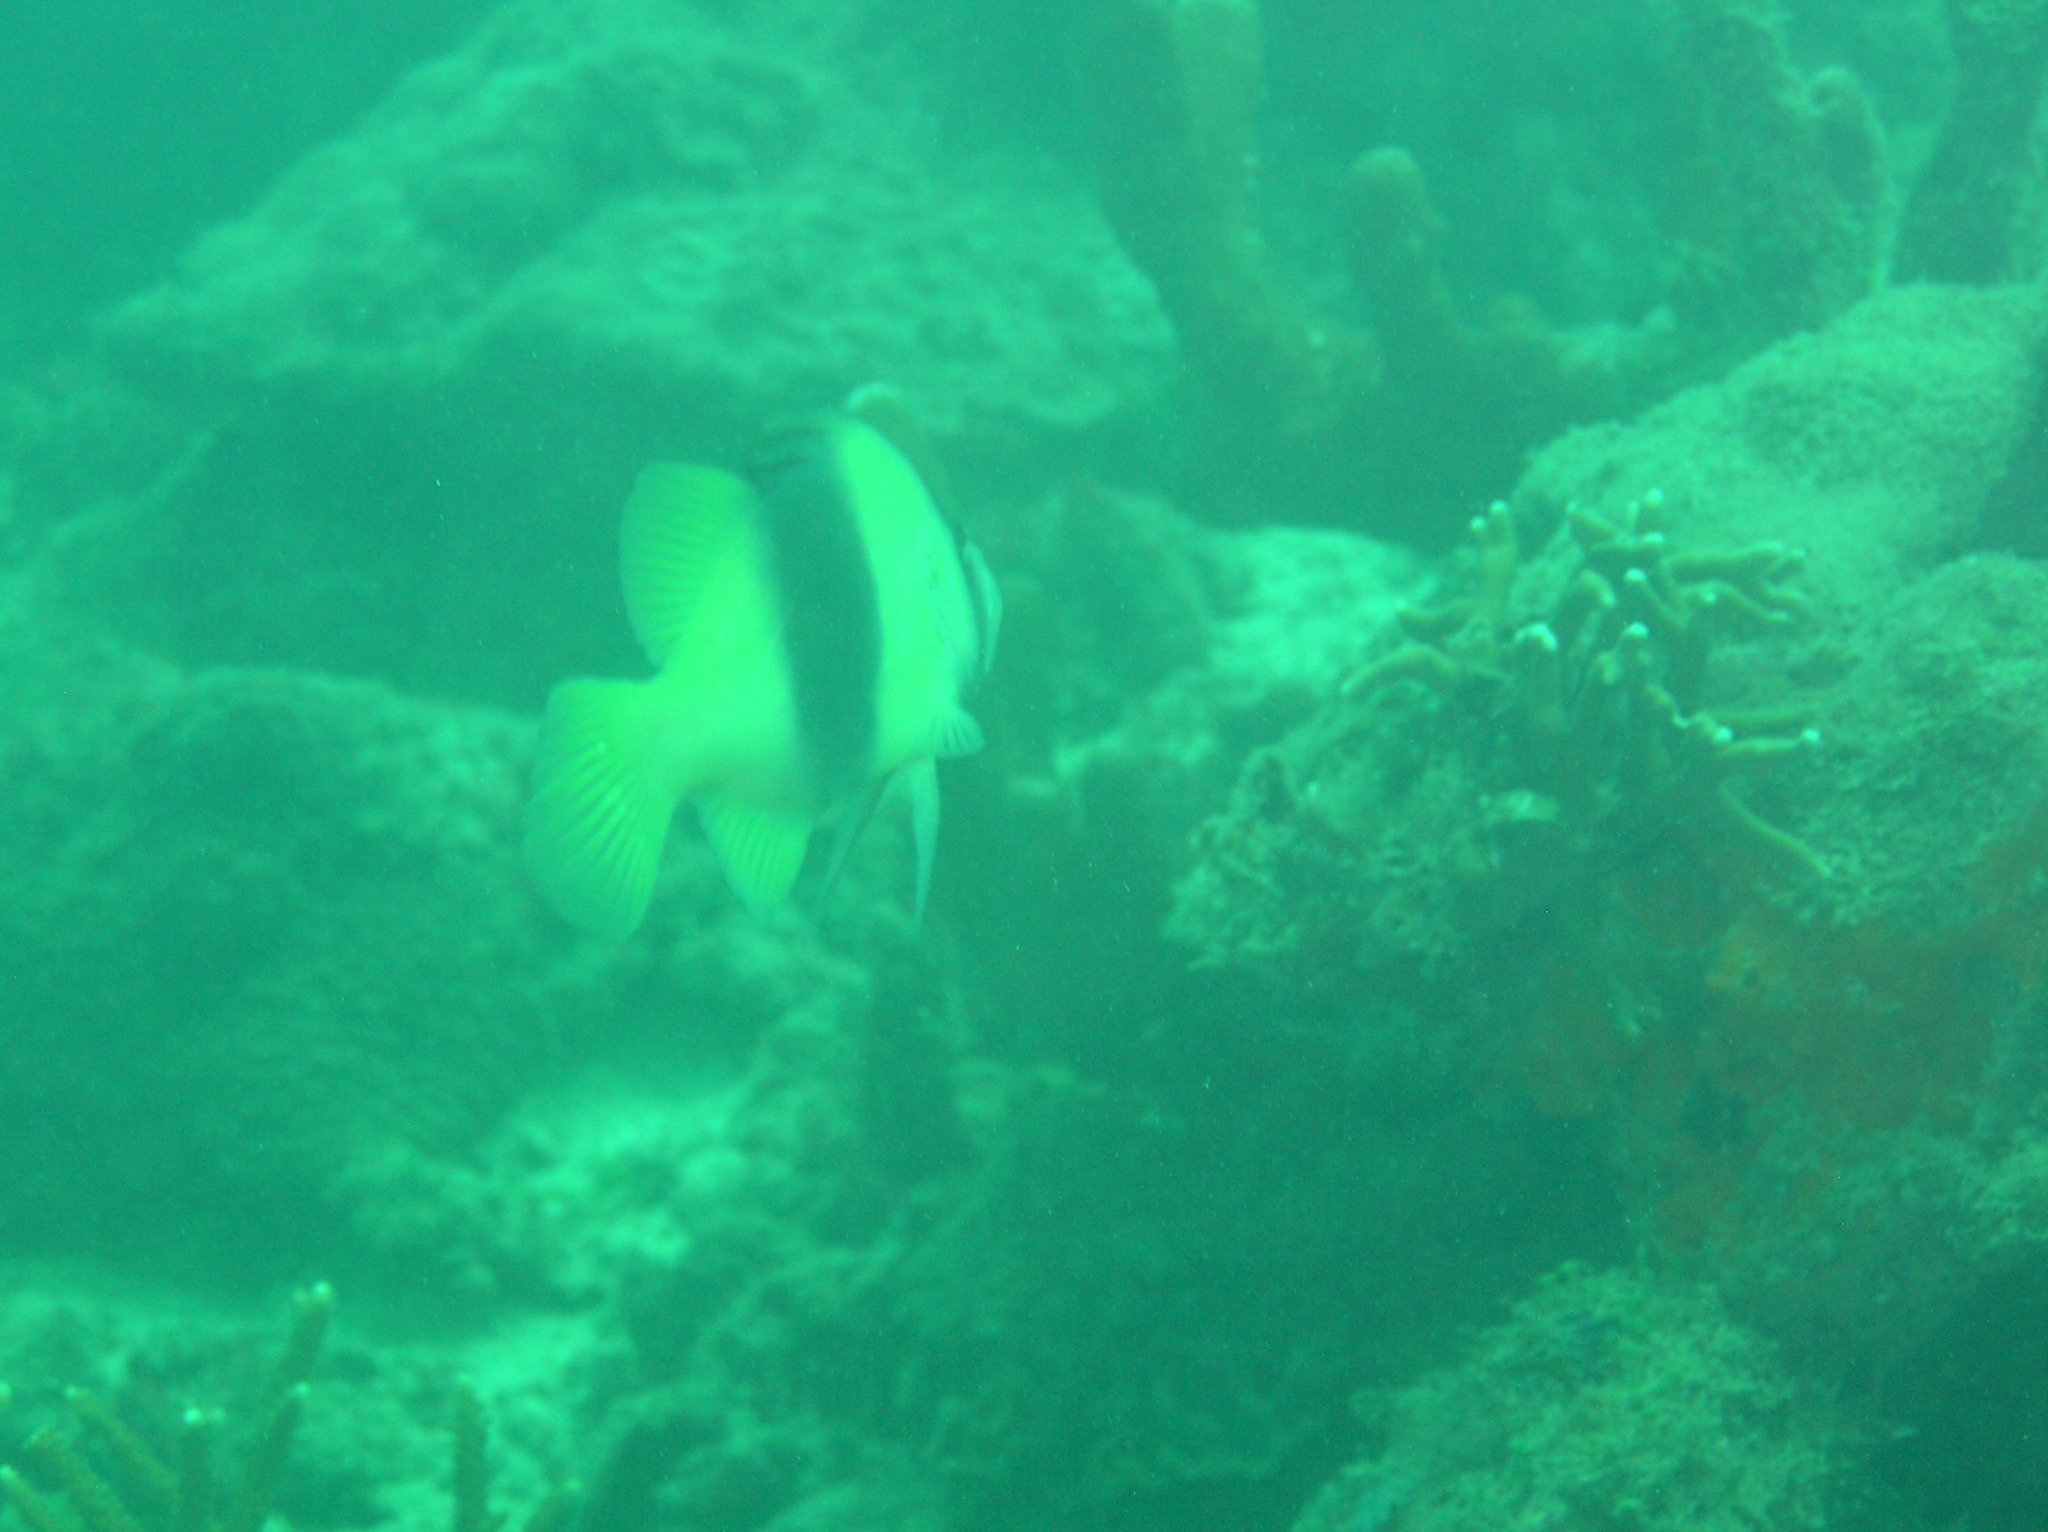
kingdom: Animalia
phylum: Chordata
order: Perciformes
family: Serranidae
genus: Diploprion
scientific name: Diploprion bifasciatum
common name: Barred soapfish
